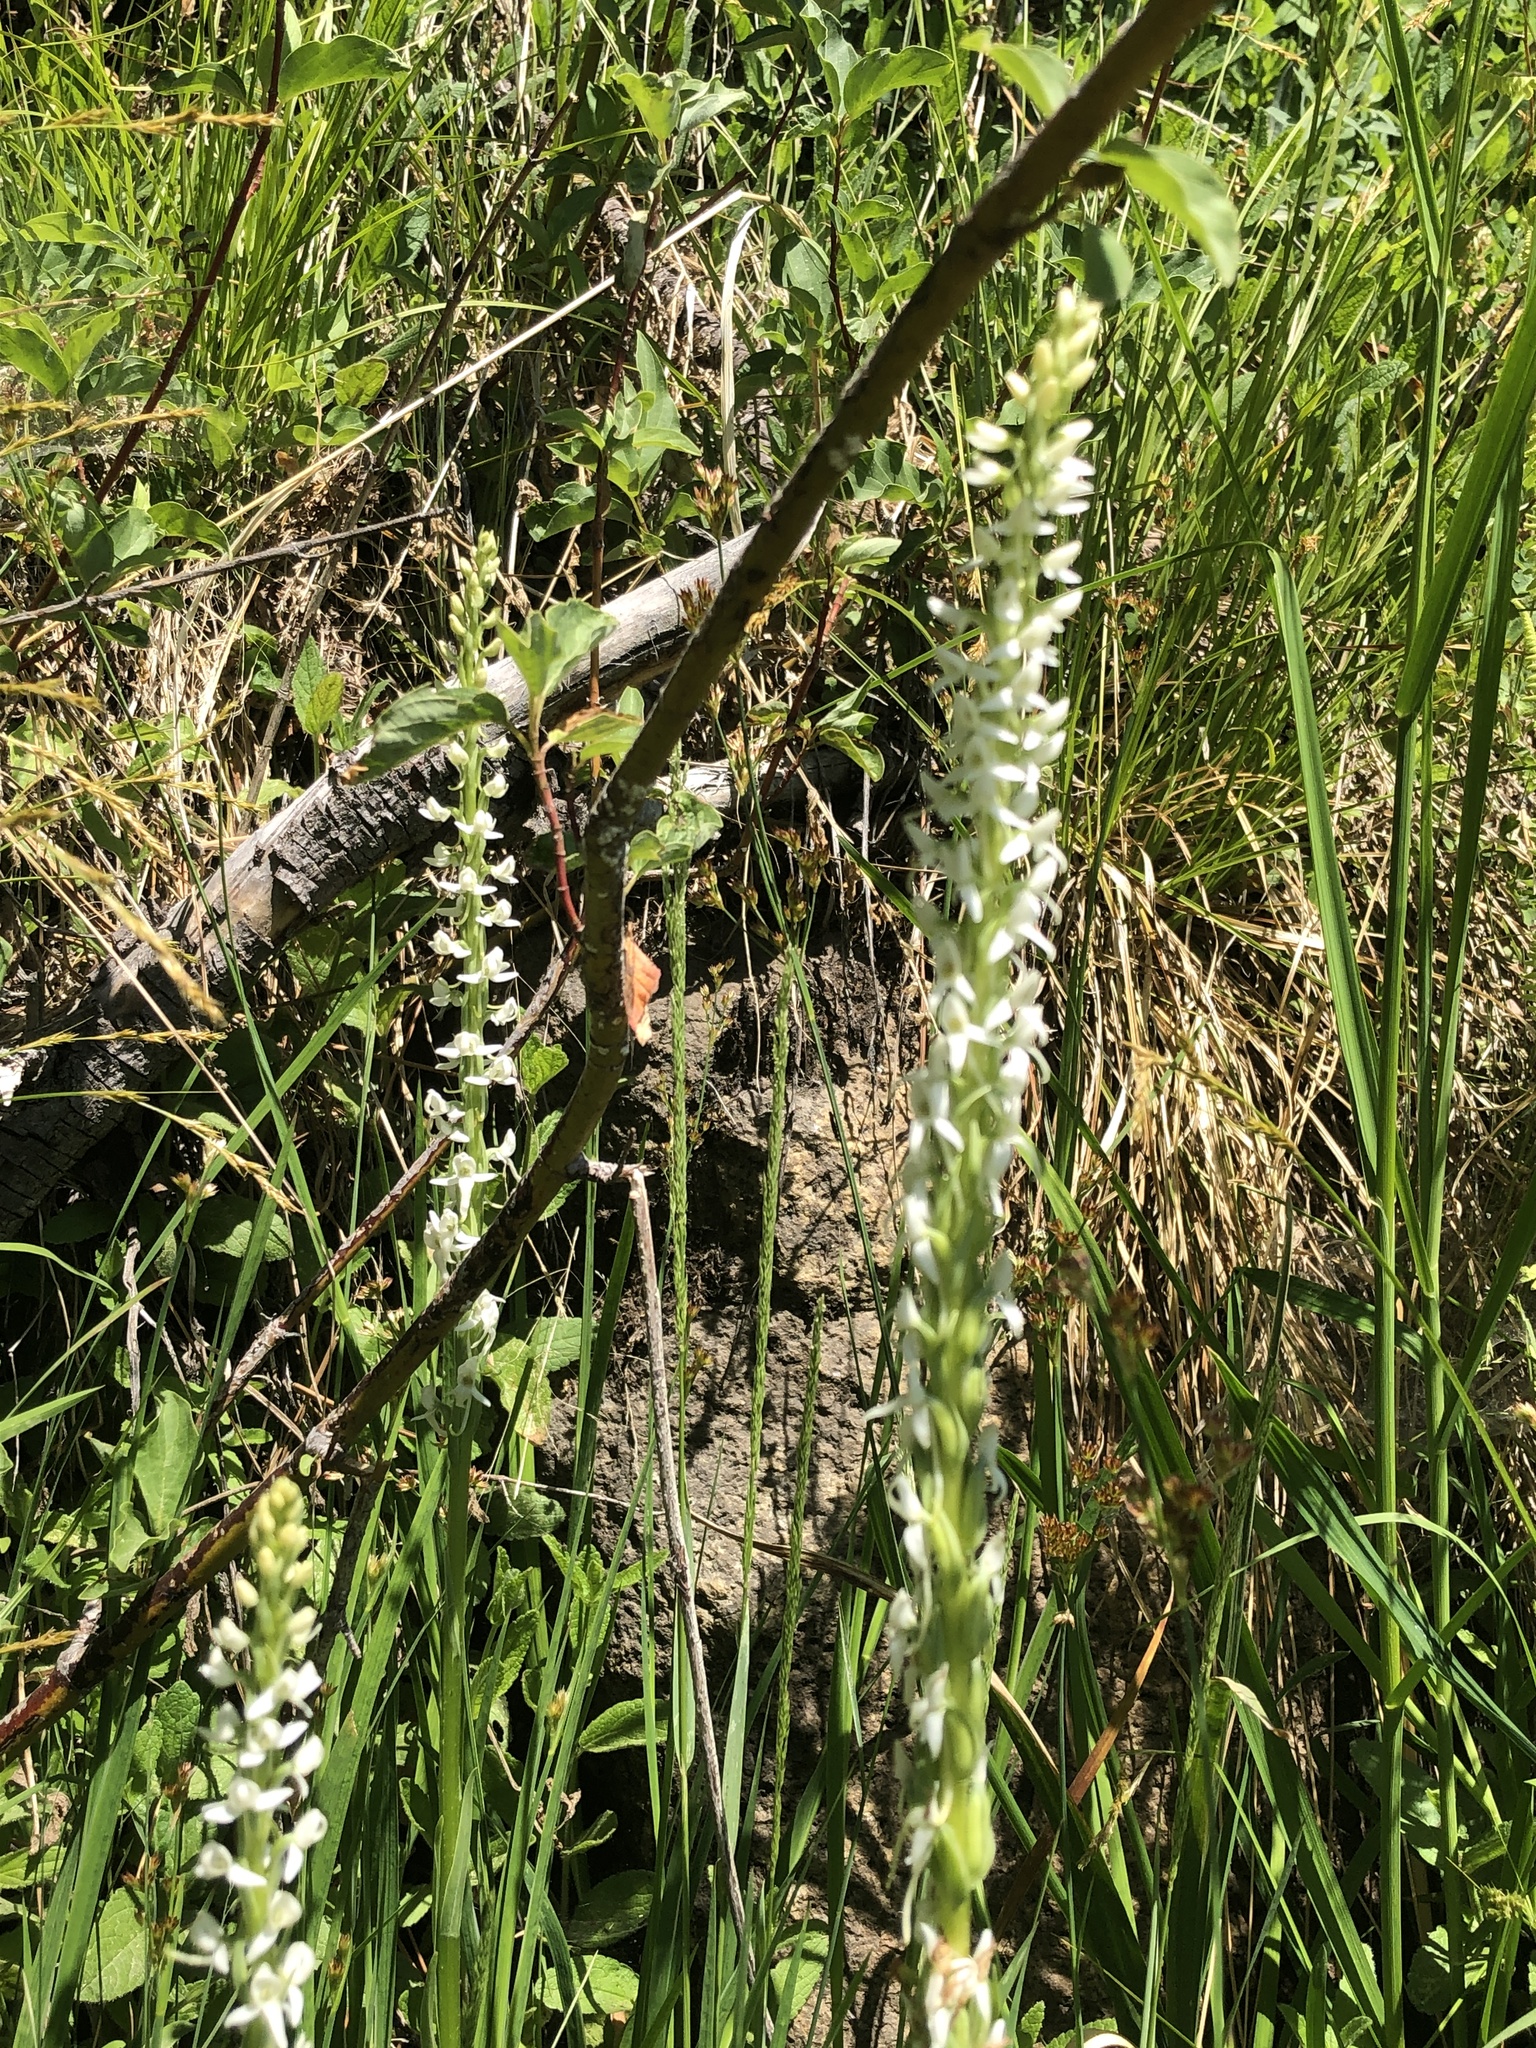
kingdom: Plantae
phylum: Tracheophyta
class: Liliopsida
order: Asparagales
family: Orchidaceae
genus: Platanthera
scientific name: Platanthera dilatata
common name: Bog candles
